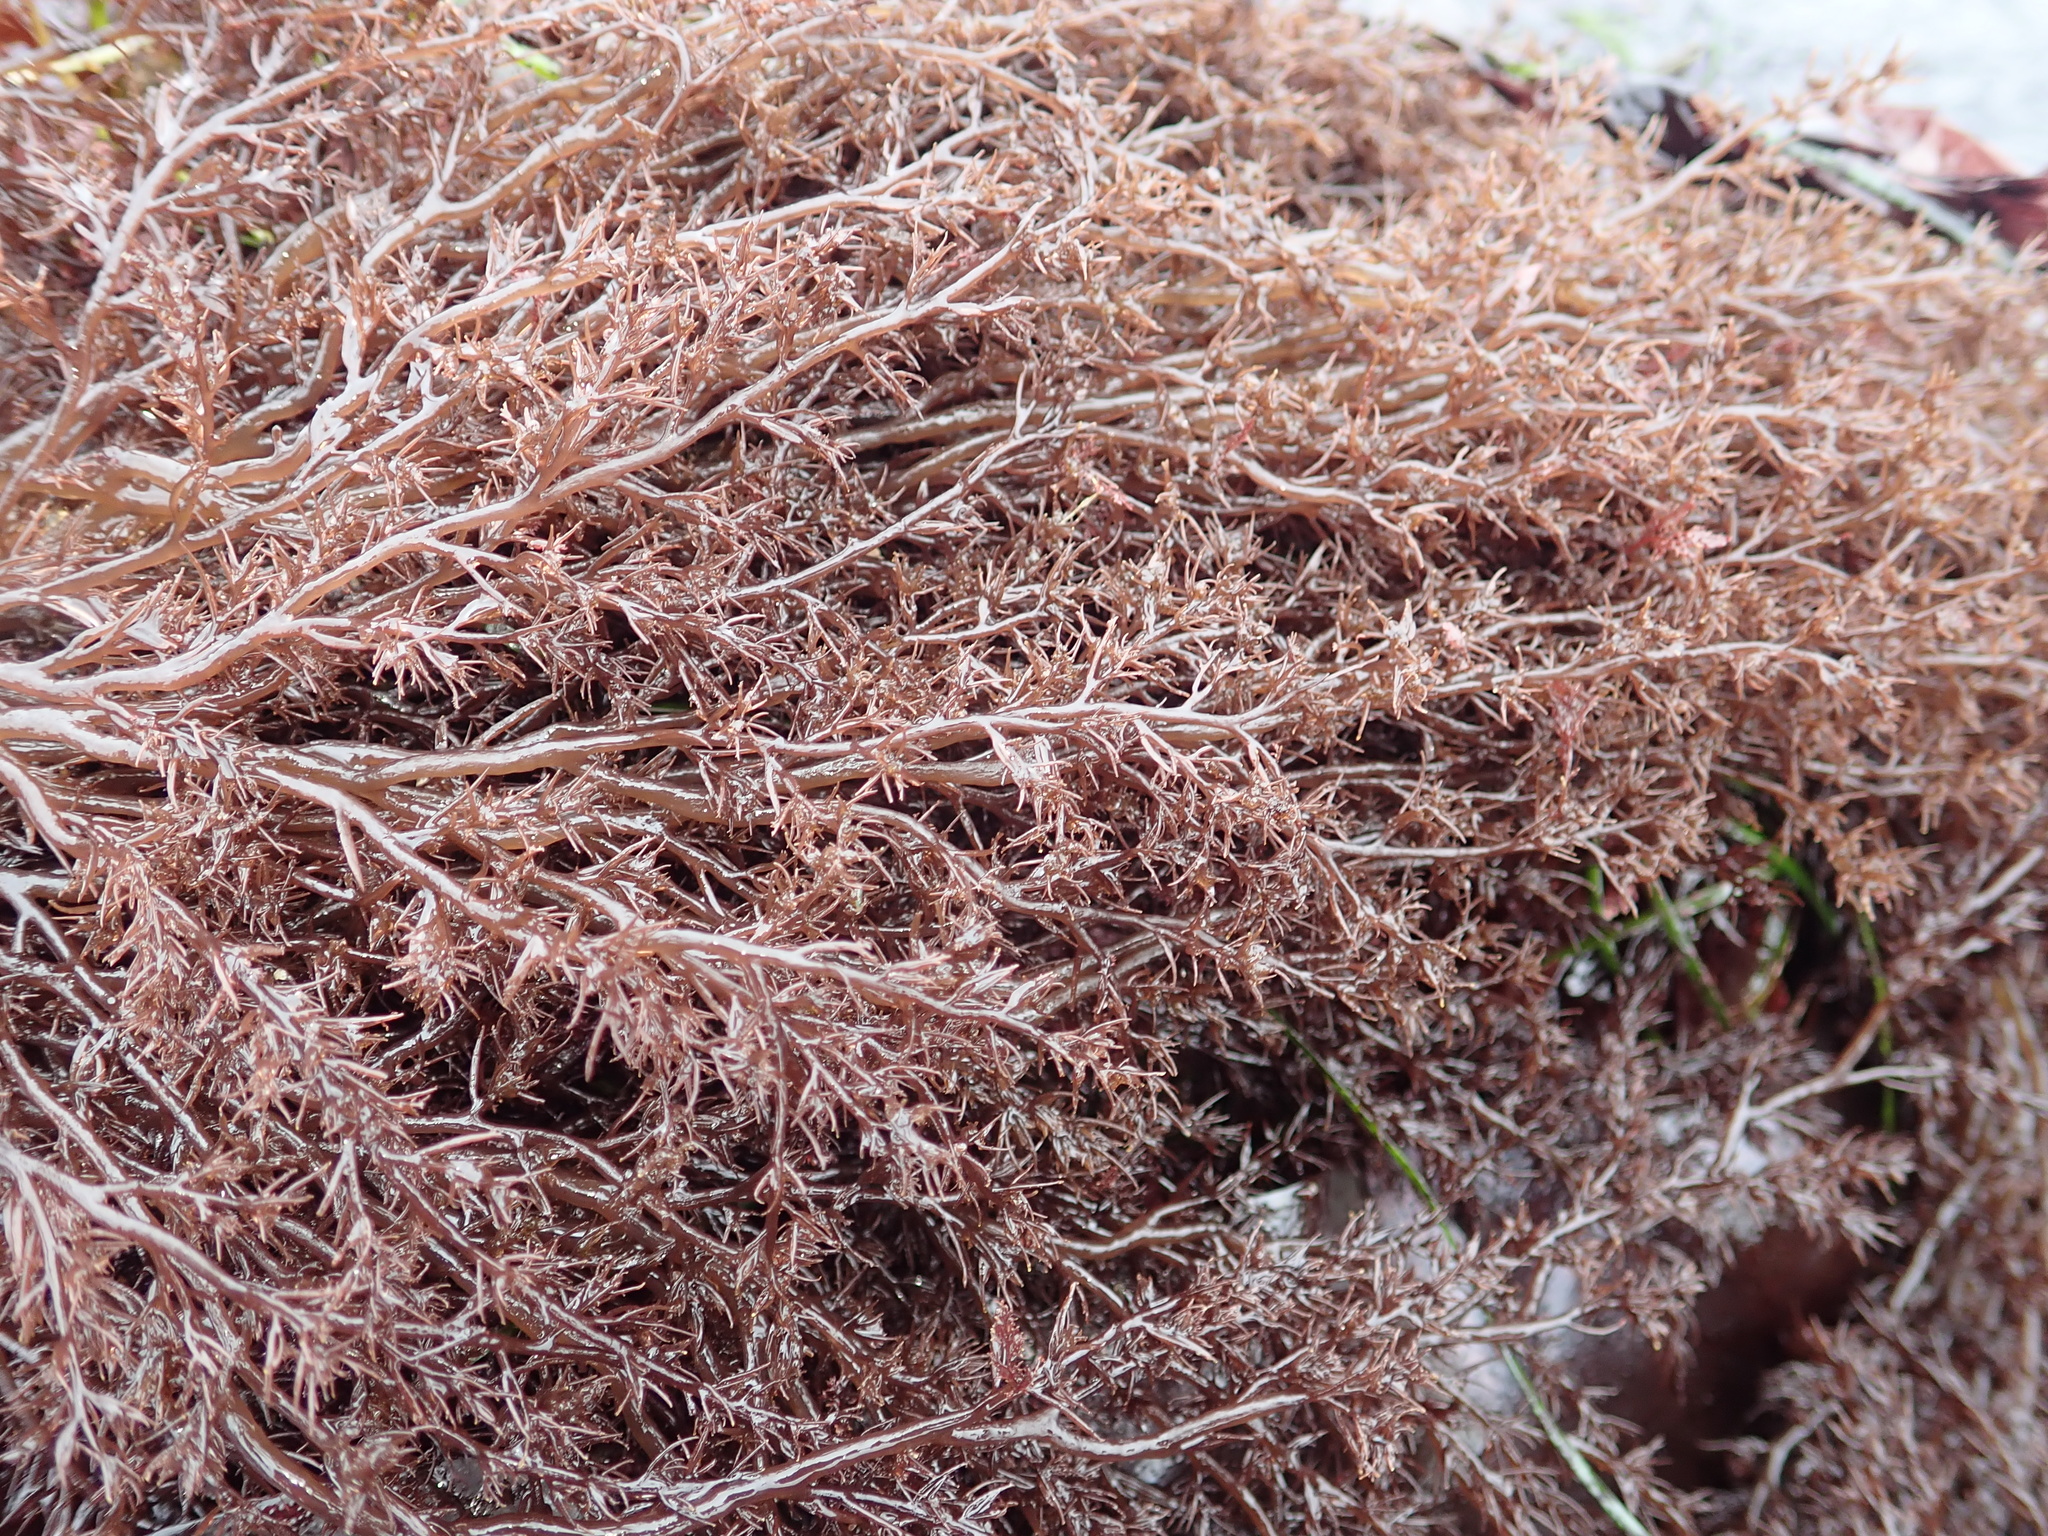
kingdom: Plantae
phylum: Rhodophyta
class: Florideophyceae
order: Ceramiales
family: Rhodomelaceae
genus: Odonthalia
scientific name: Odonthalia floccosa
